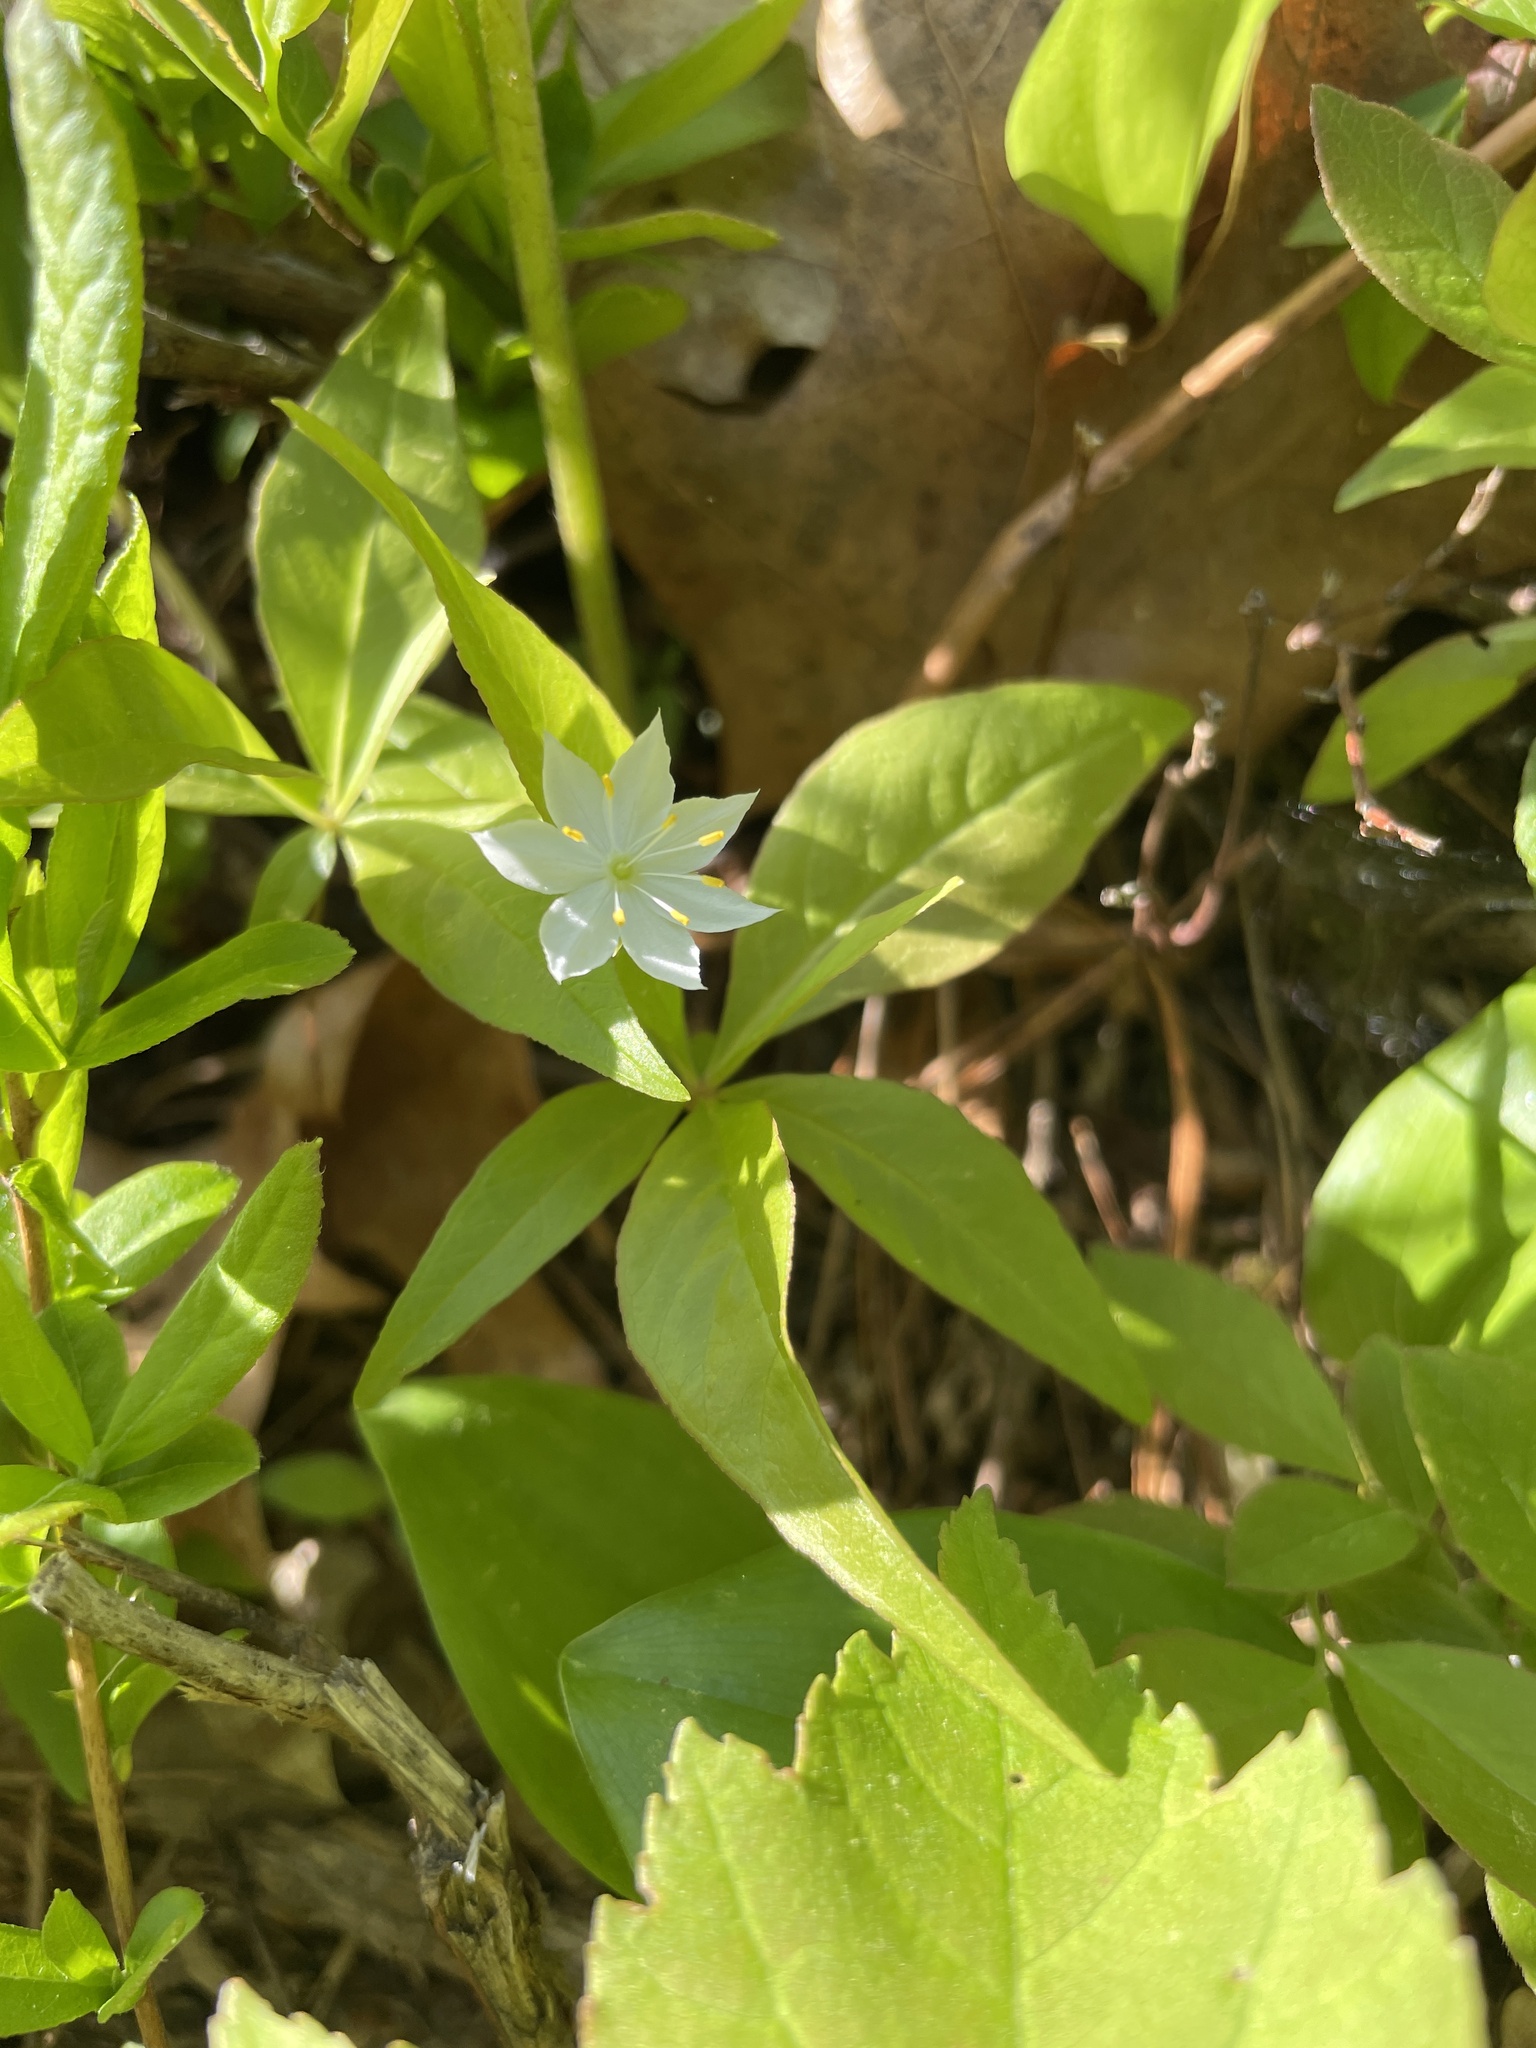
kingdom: Plantae
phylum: Tracheophyta
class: Magnoliopsida
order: Ericales
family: Primulaceae
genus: Lysimachia
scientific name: Lysimachia borealis
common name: American starflower
